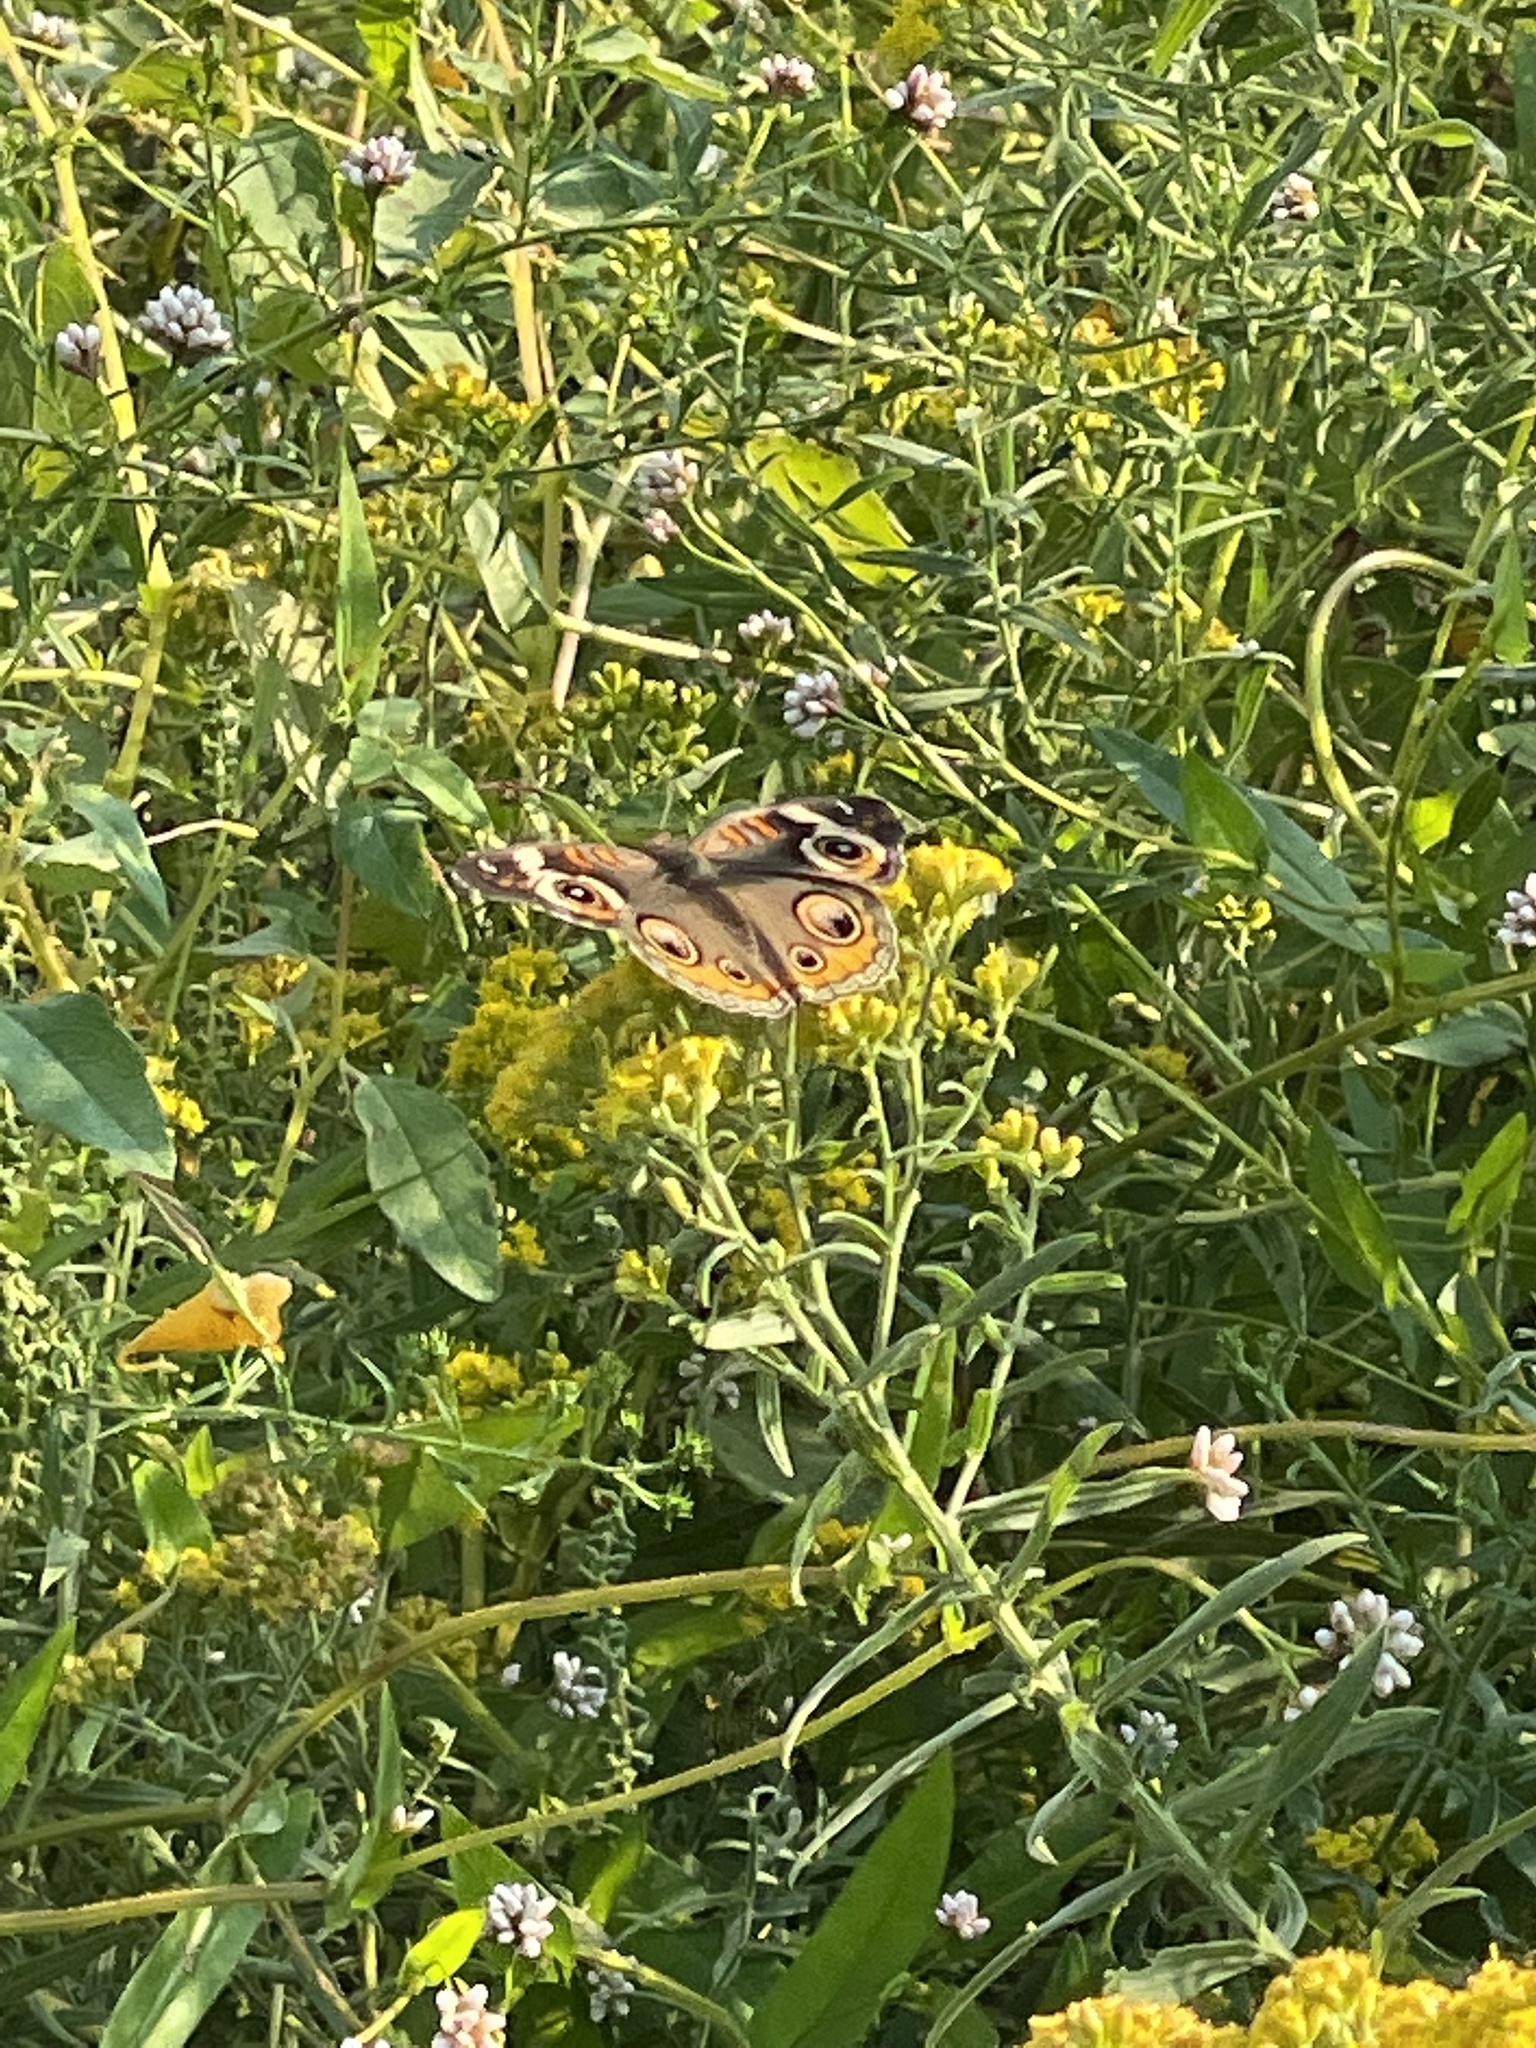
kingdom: Animalia
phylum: Arthropoda
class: Insecta
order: Lepidoptera
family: Nymphalidae
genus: Junonia
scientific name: Junonia coenia
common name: Common buckeye
